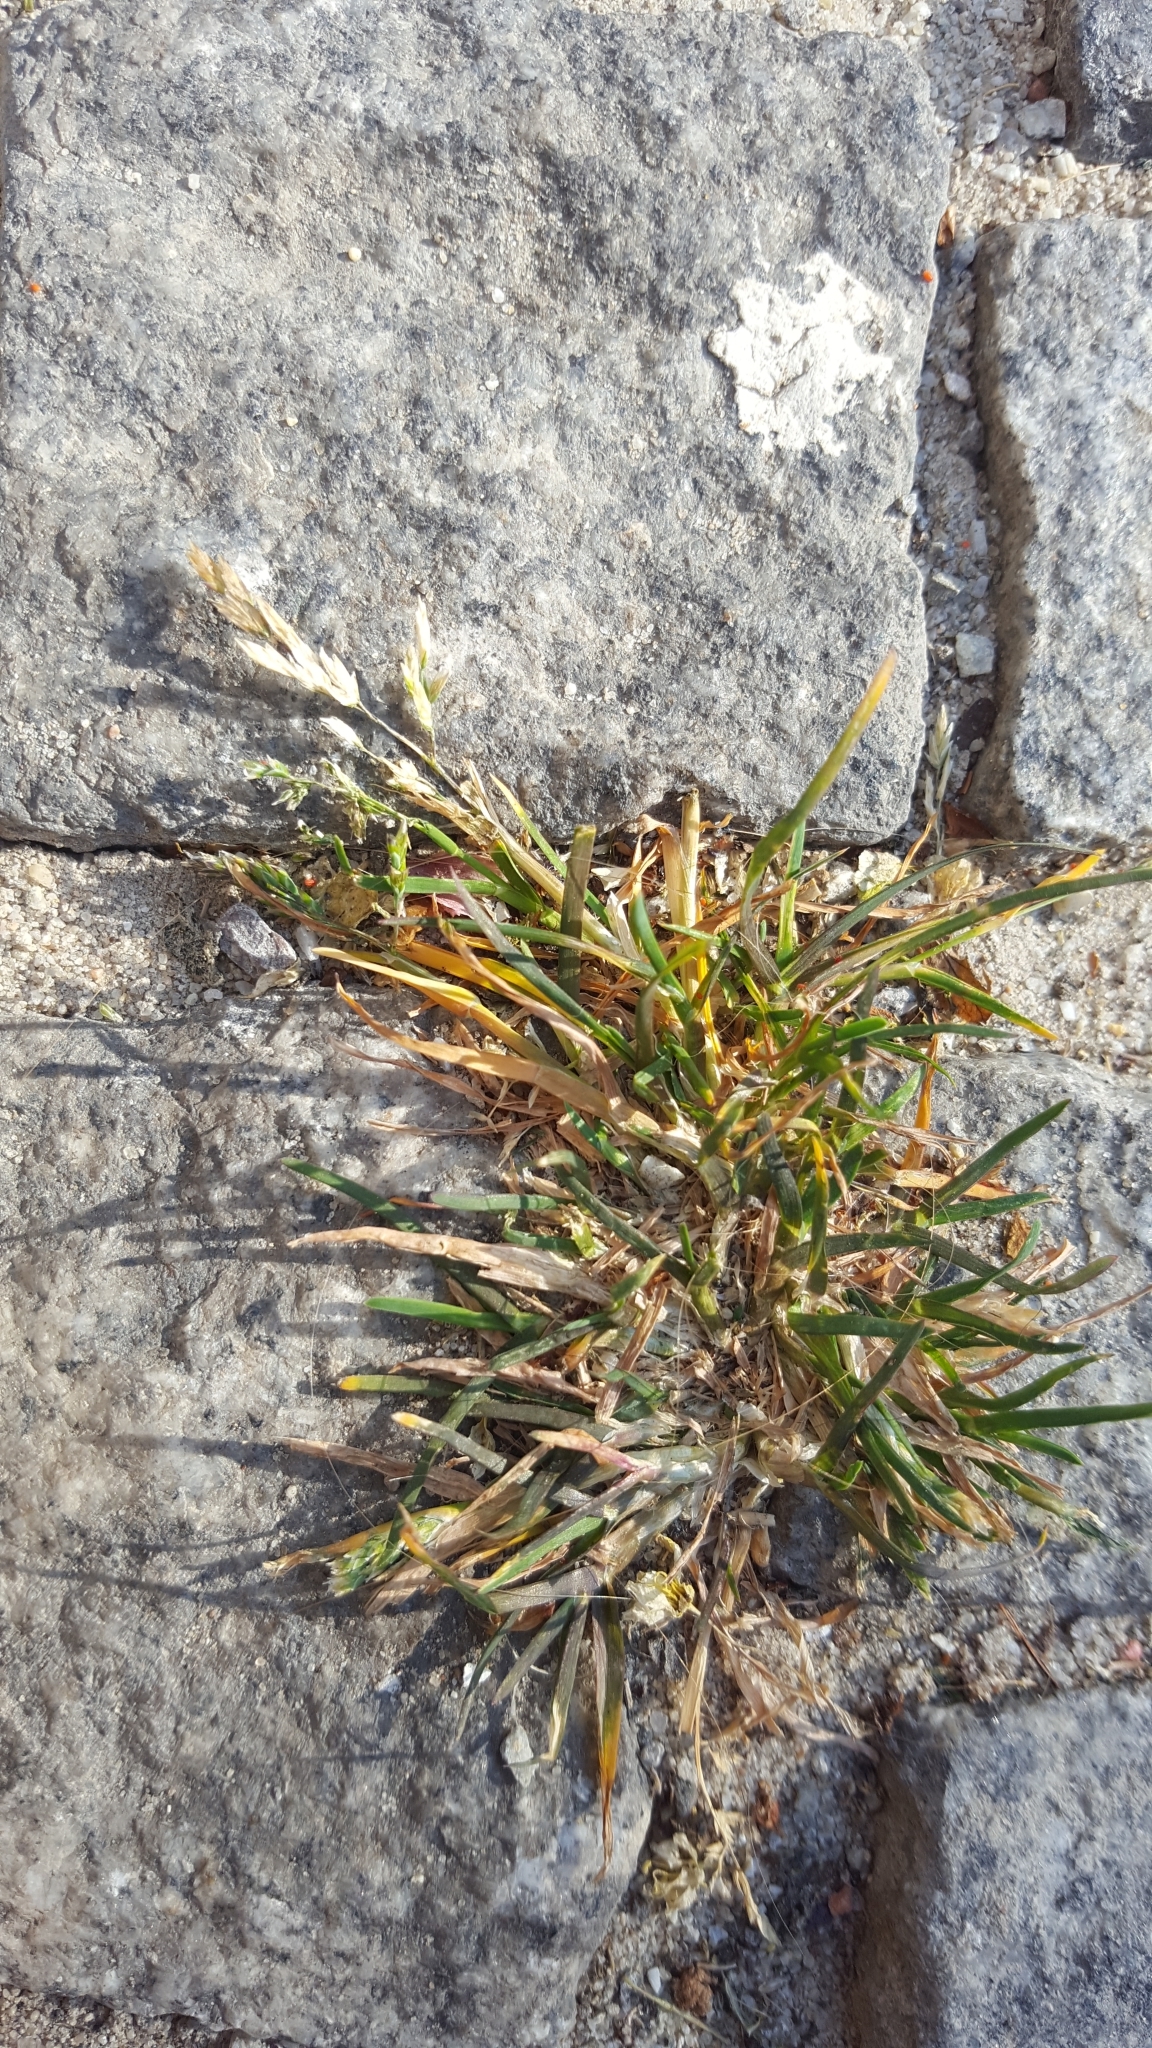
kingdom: Plantae
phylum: Tracheophyta
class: Liliopsida
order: Poales
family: Poaceae
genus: Poa
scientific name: Poa annua
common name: Annual bluegrass
